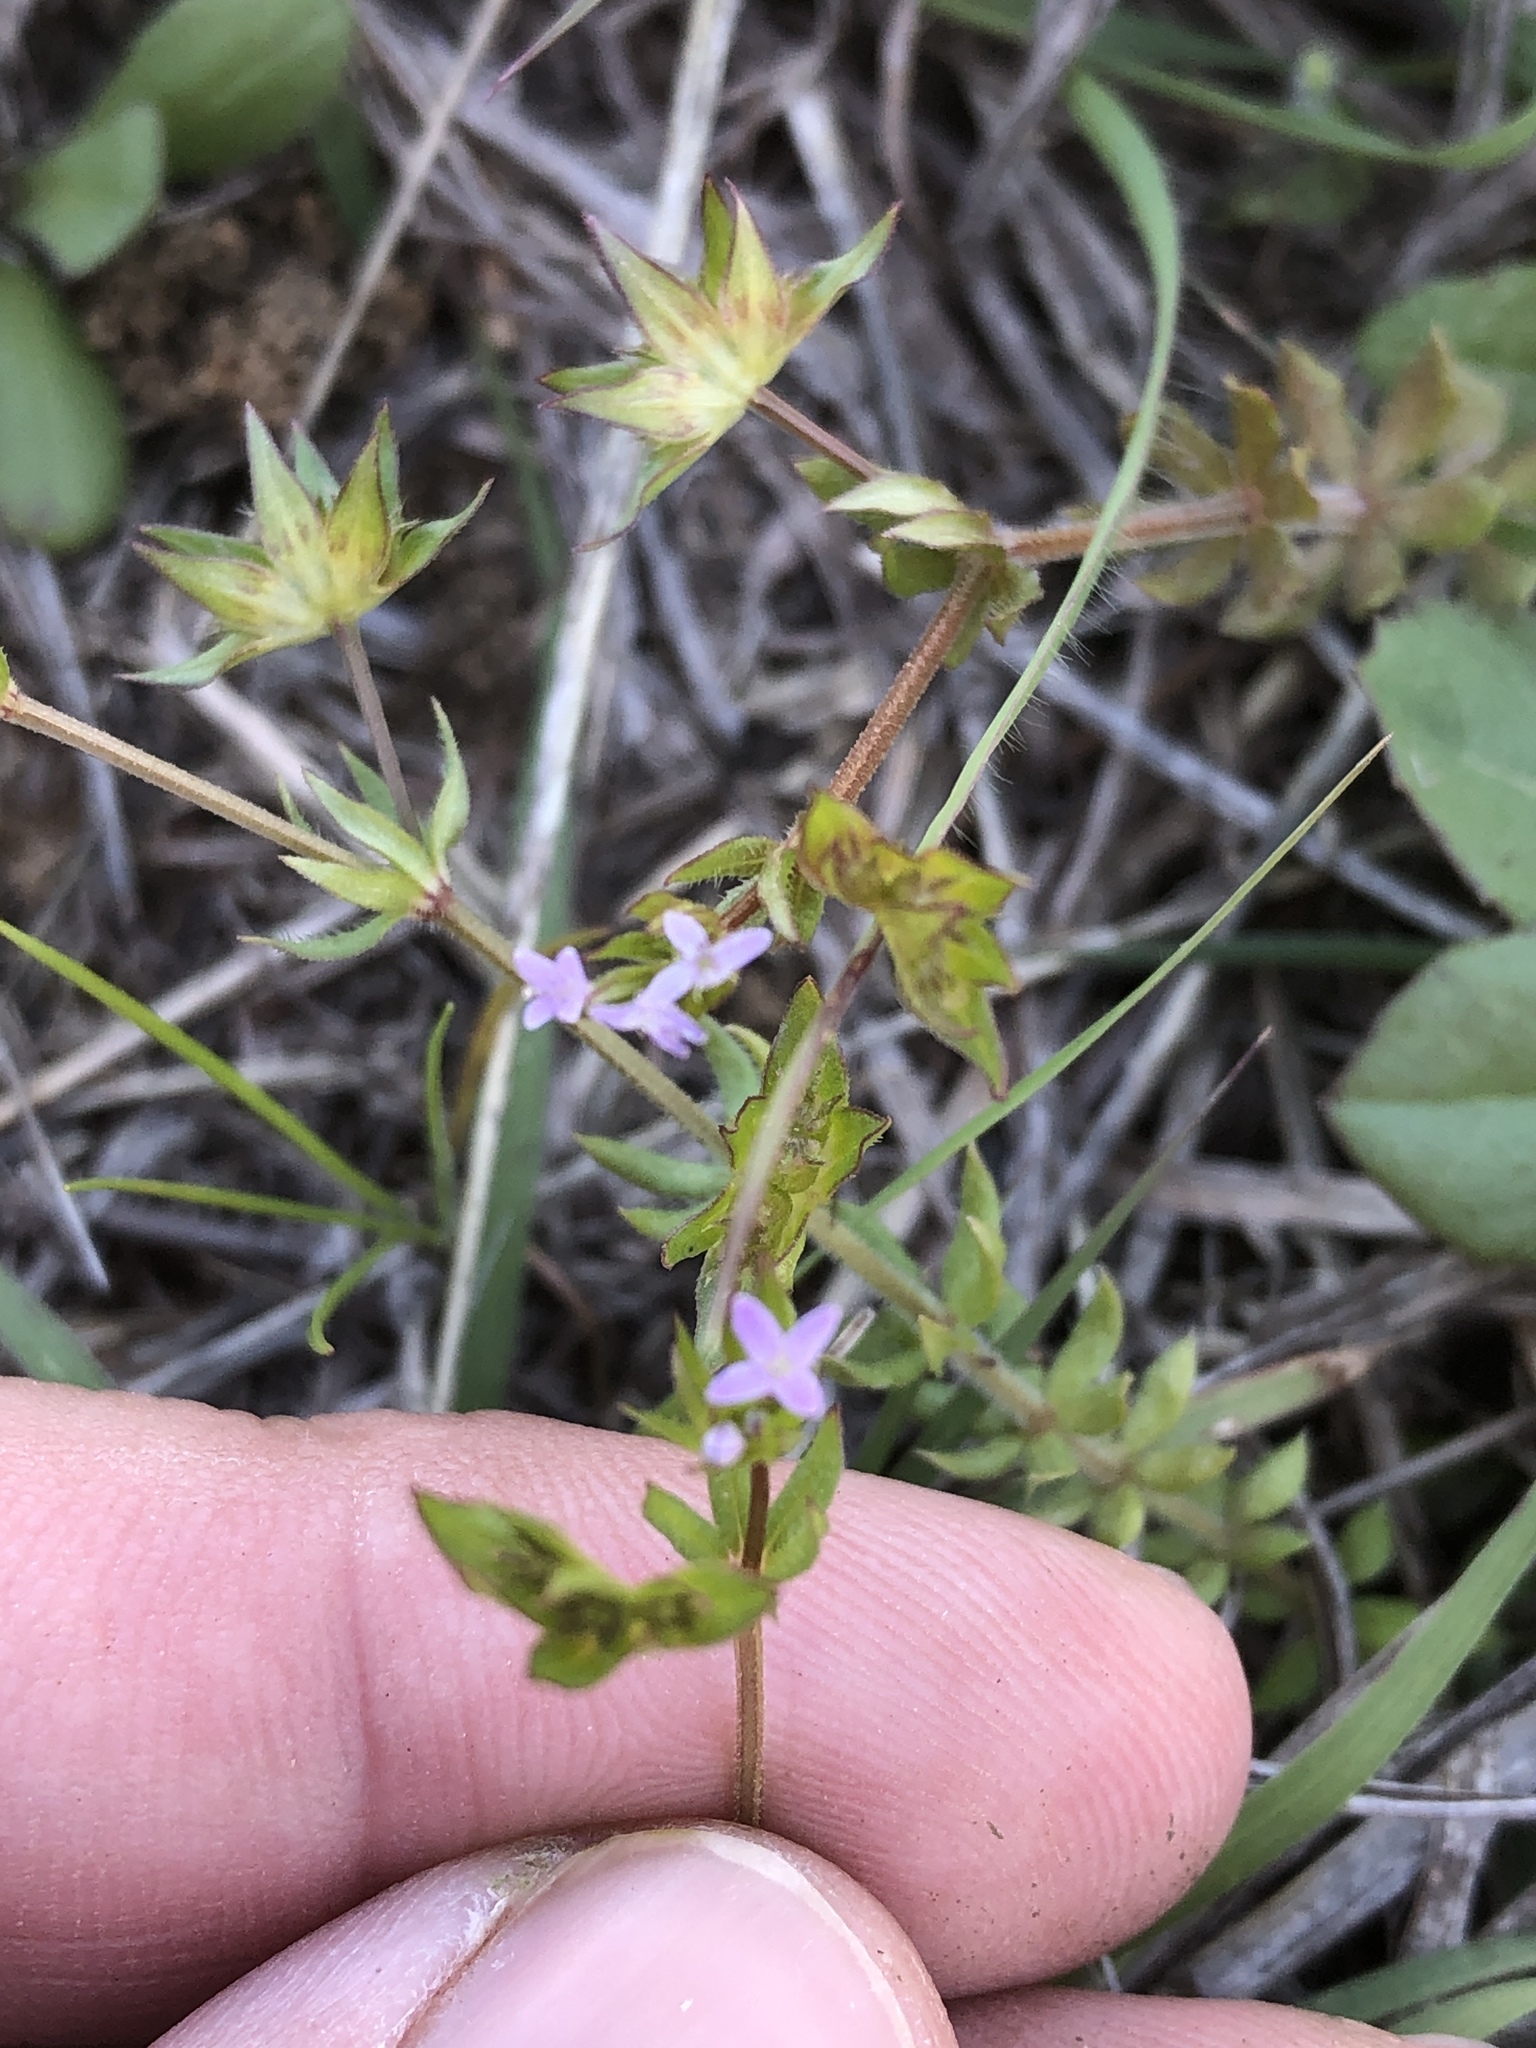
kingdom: Plantae
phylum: Tracheophyta
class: Magnoliopsida
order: Gentianales
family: Rubiaceae
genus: Sherardia
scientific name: Sherardia arvensis
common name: Field madder
